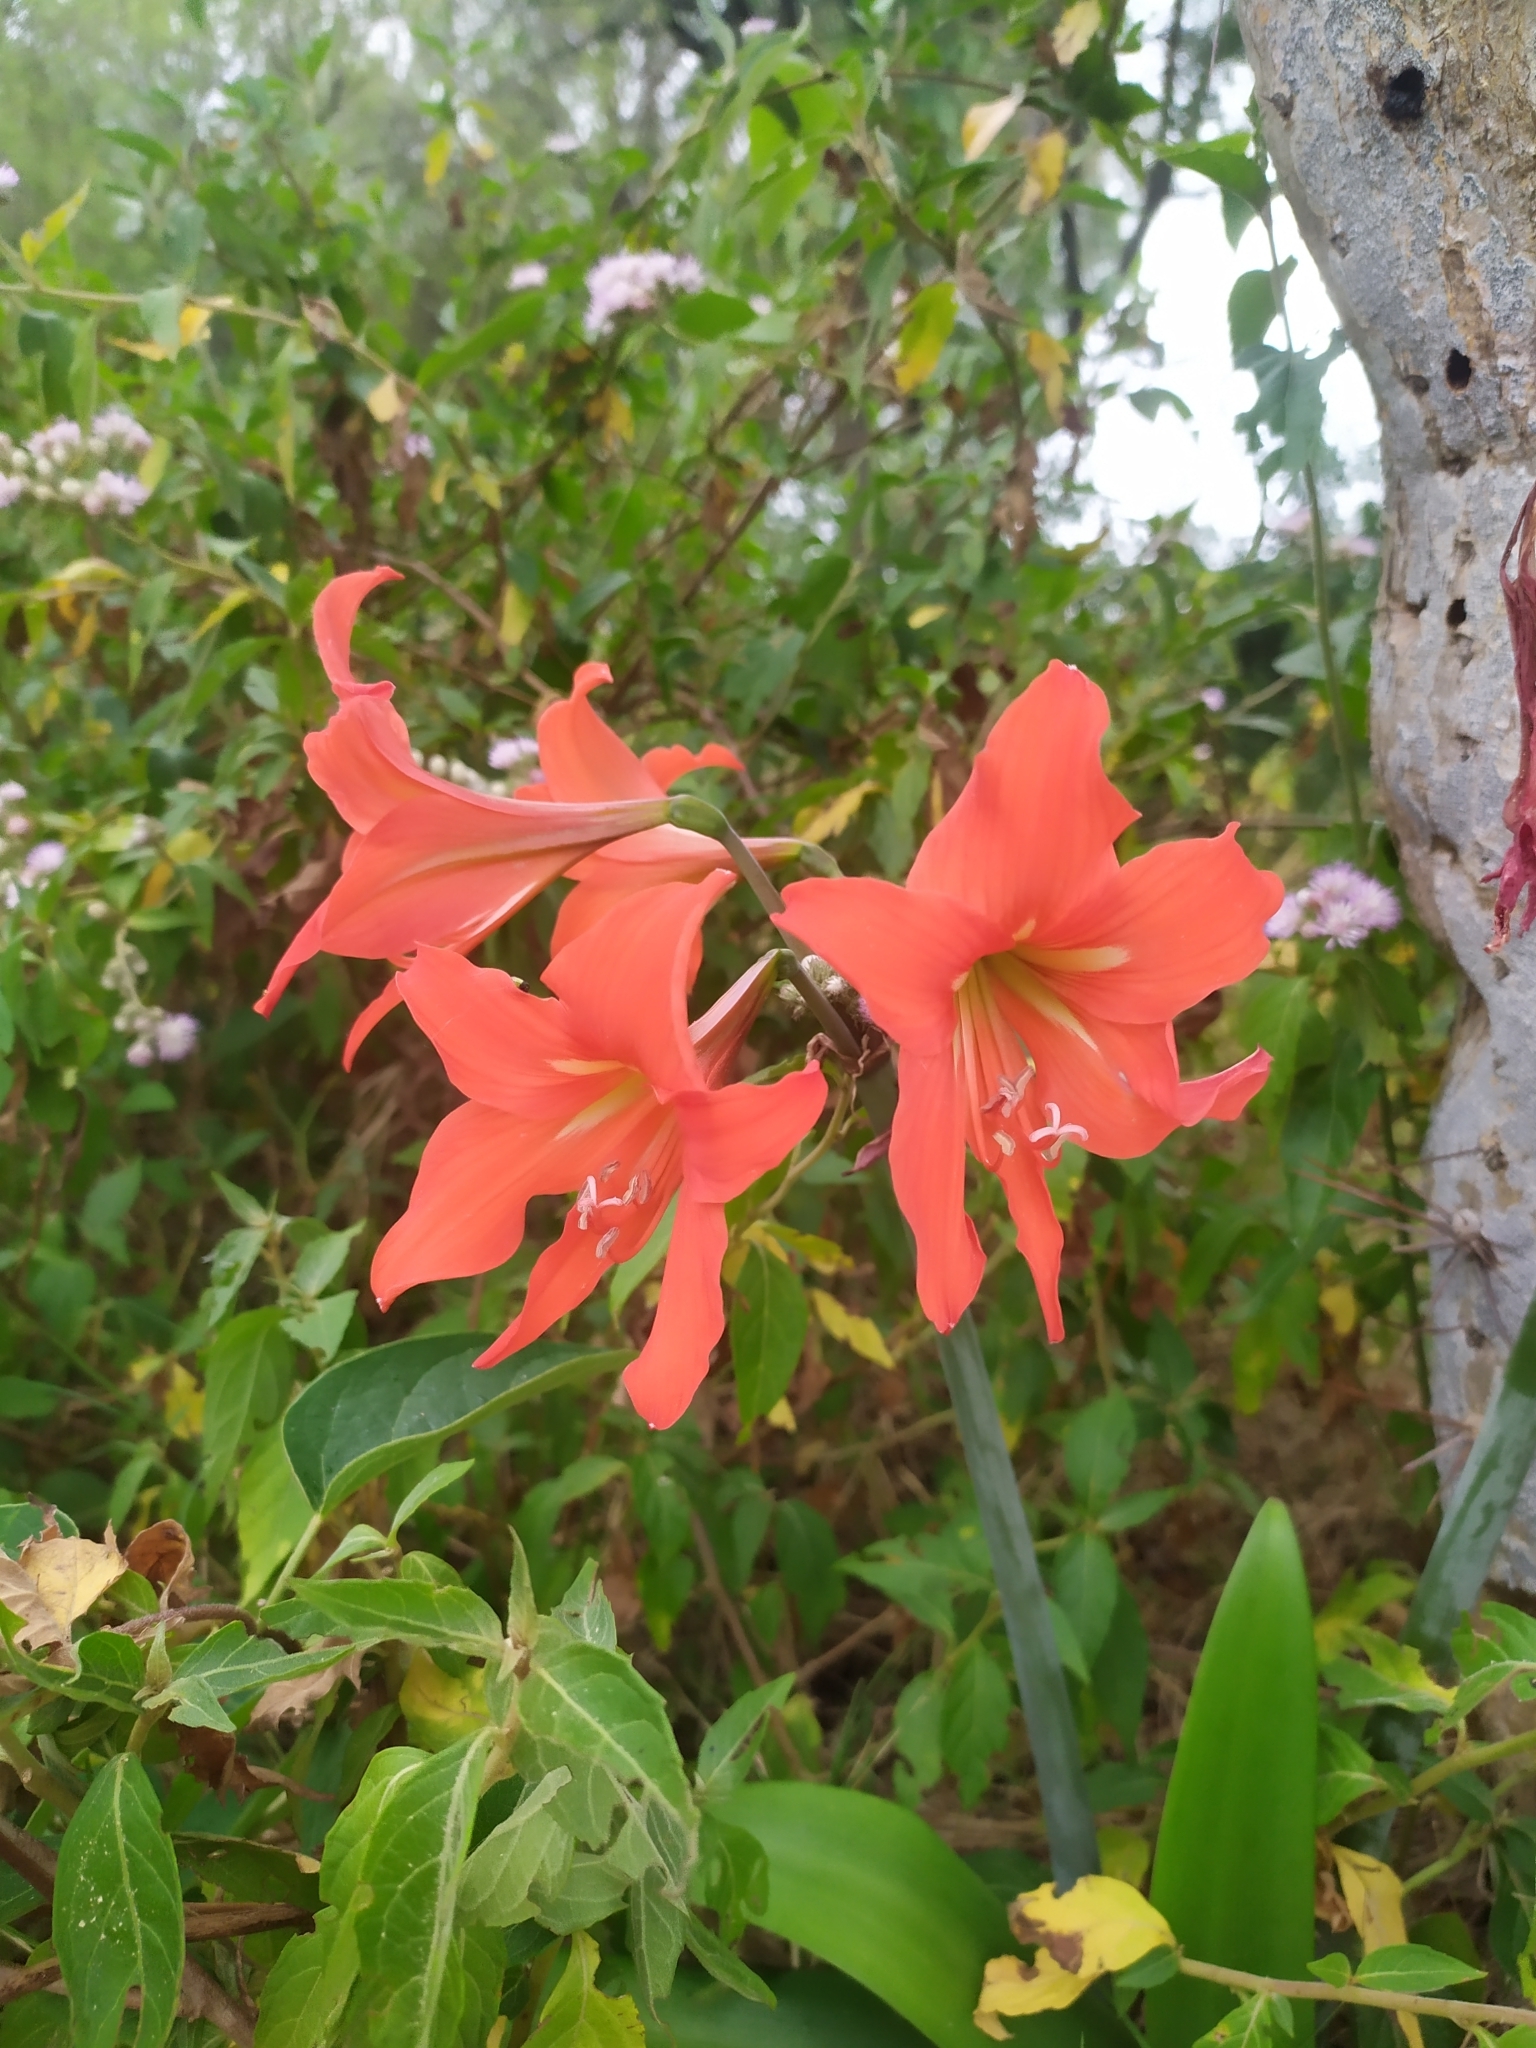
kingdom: Plantae
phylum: Tracheophyta
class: Liliopsida
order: Asparagales
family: Amaryllidaceae
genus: Hippeastrum
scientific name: Hippeastrum petiolatum
